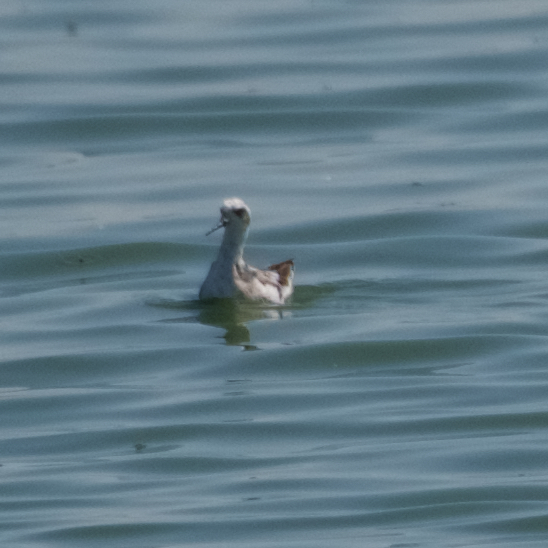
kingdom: Animalia
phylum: Chordata
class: Aves
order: Charadriiformes
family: Scolopacidae
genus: Phalaropus
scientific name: Phalaropus tricolor
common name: Wilson's phalarope
